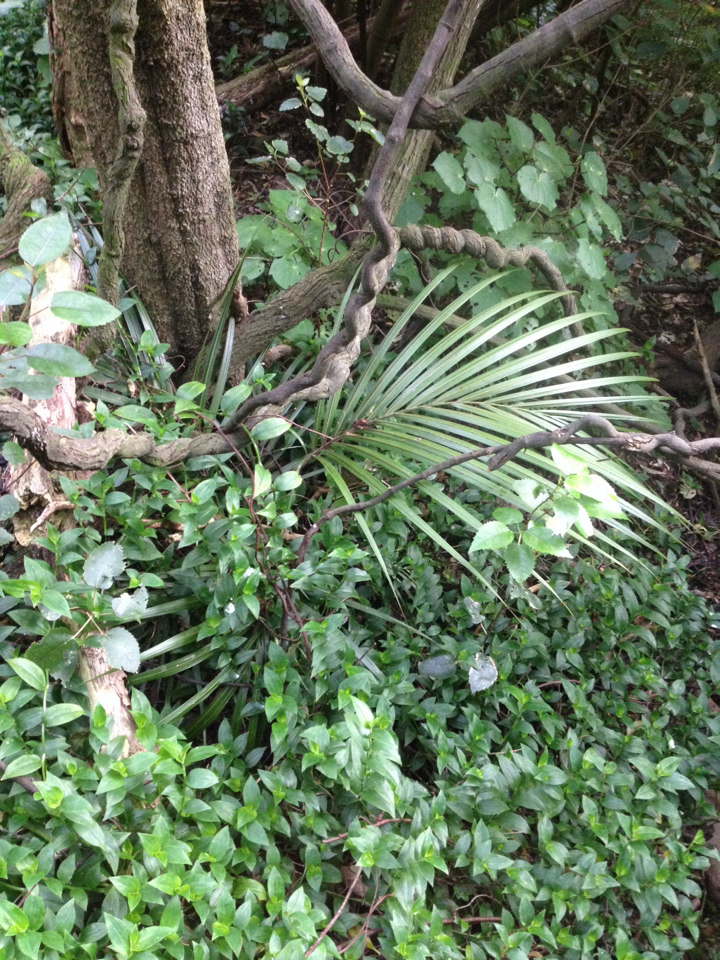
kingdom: Plantae
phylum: Tracheophyta
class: Liliopsida
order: Arecales
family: Arecaceae
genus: Rhopalostylis
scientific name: Rhopalostylis sapida
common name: Feather-duster palm
